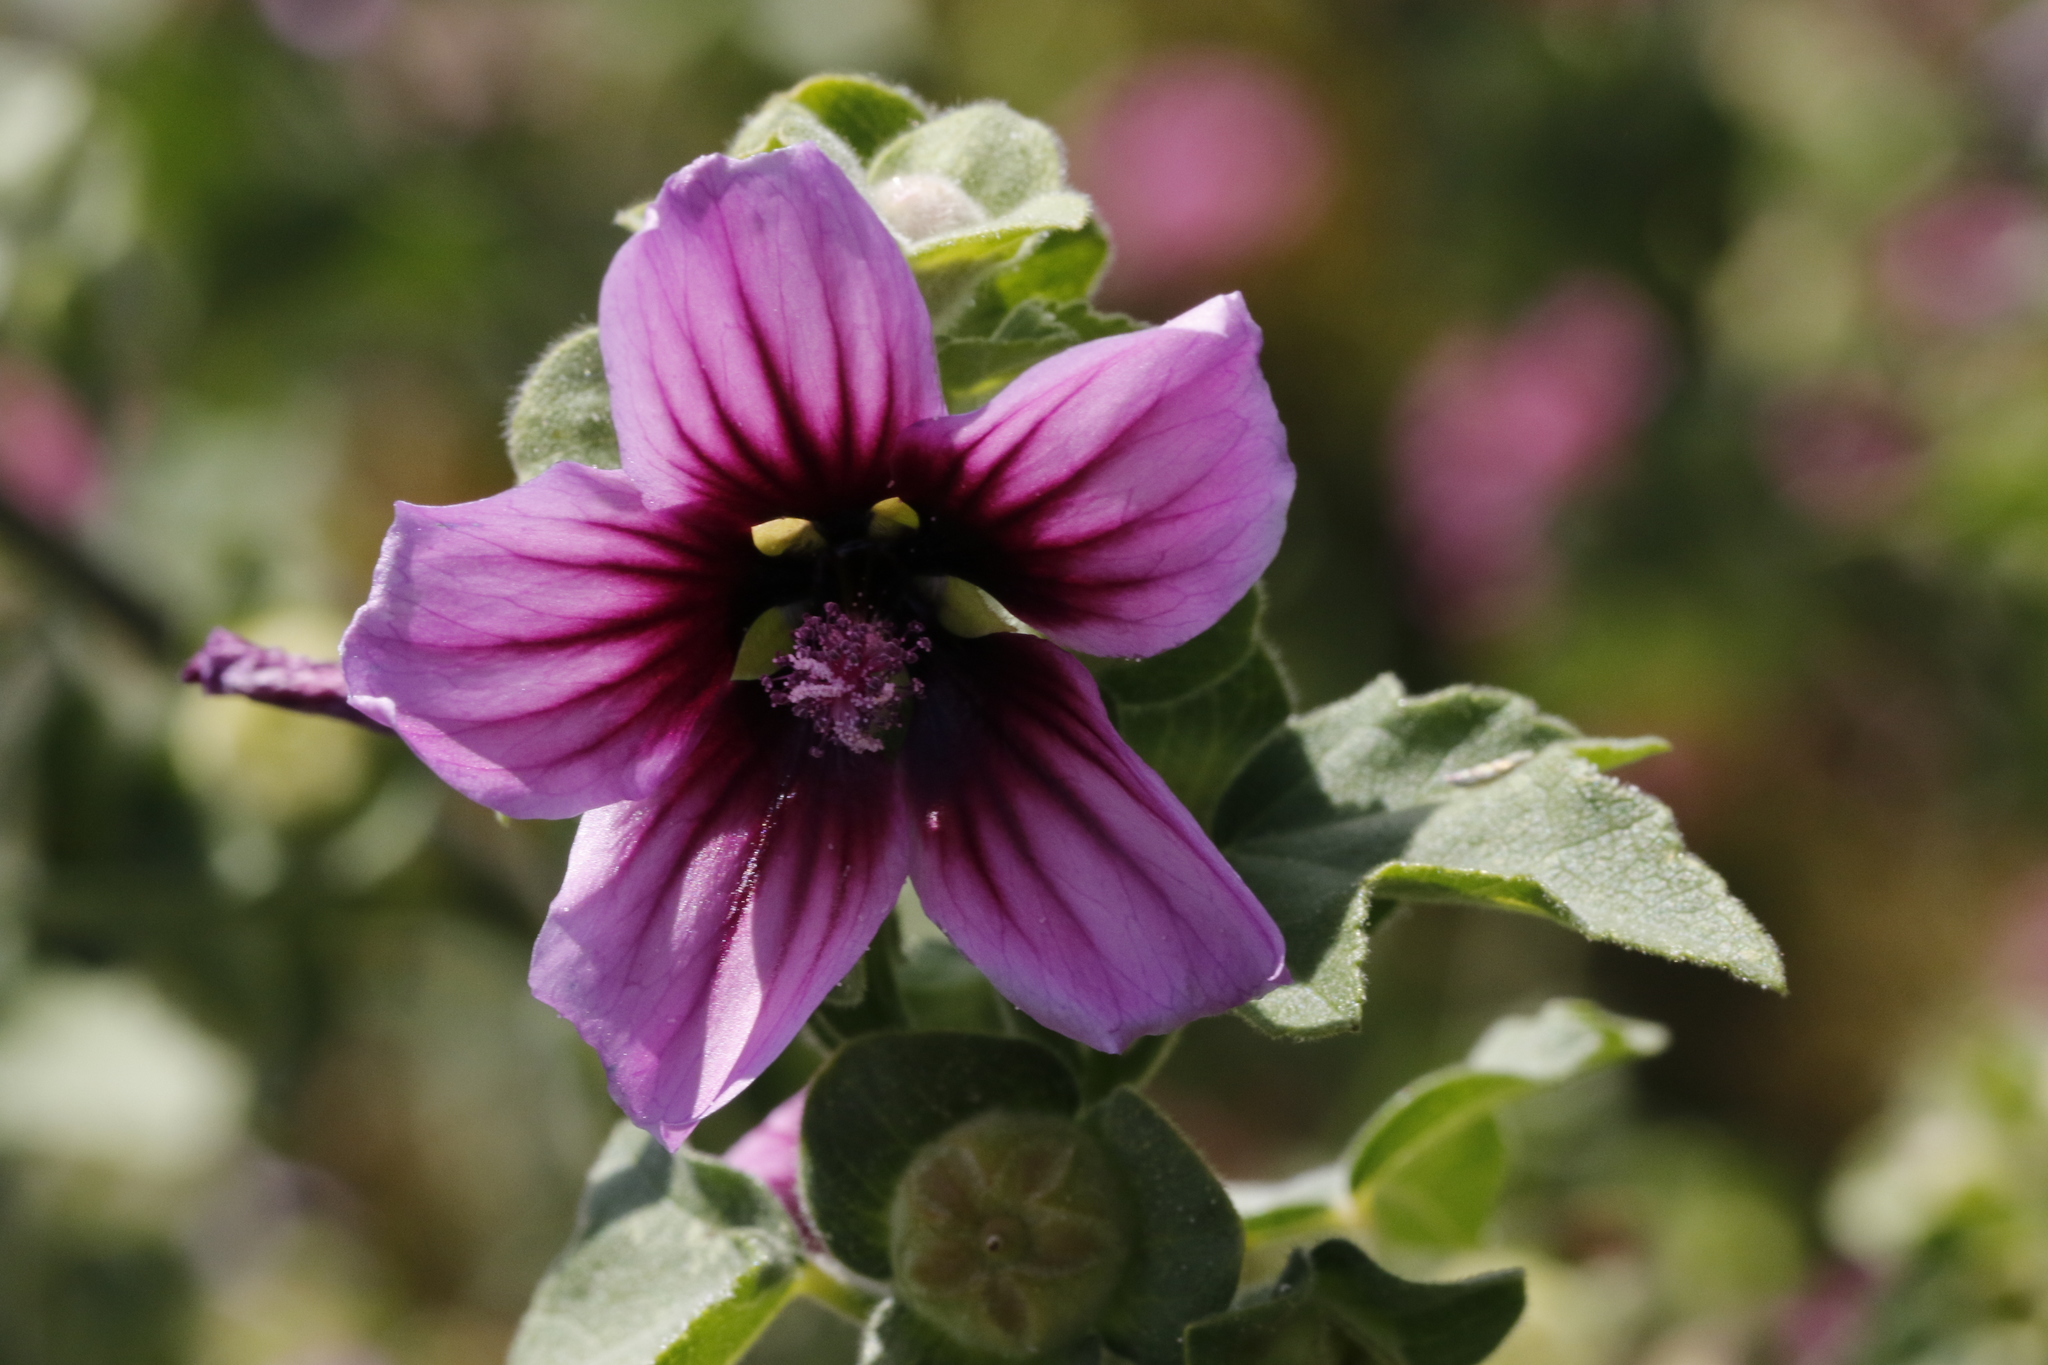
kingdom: Plantae
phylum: Tracheophyta
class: Magnoliopsida
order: Malvales
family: Malvaceae
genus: Malva
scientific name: Malva arborea
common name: Tree mallow
